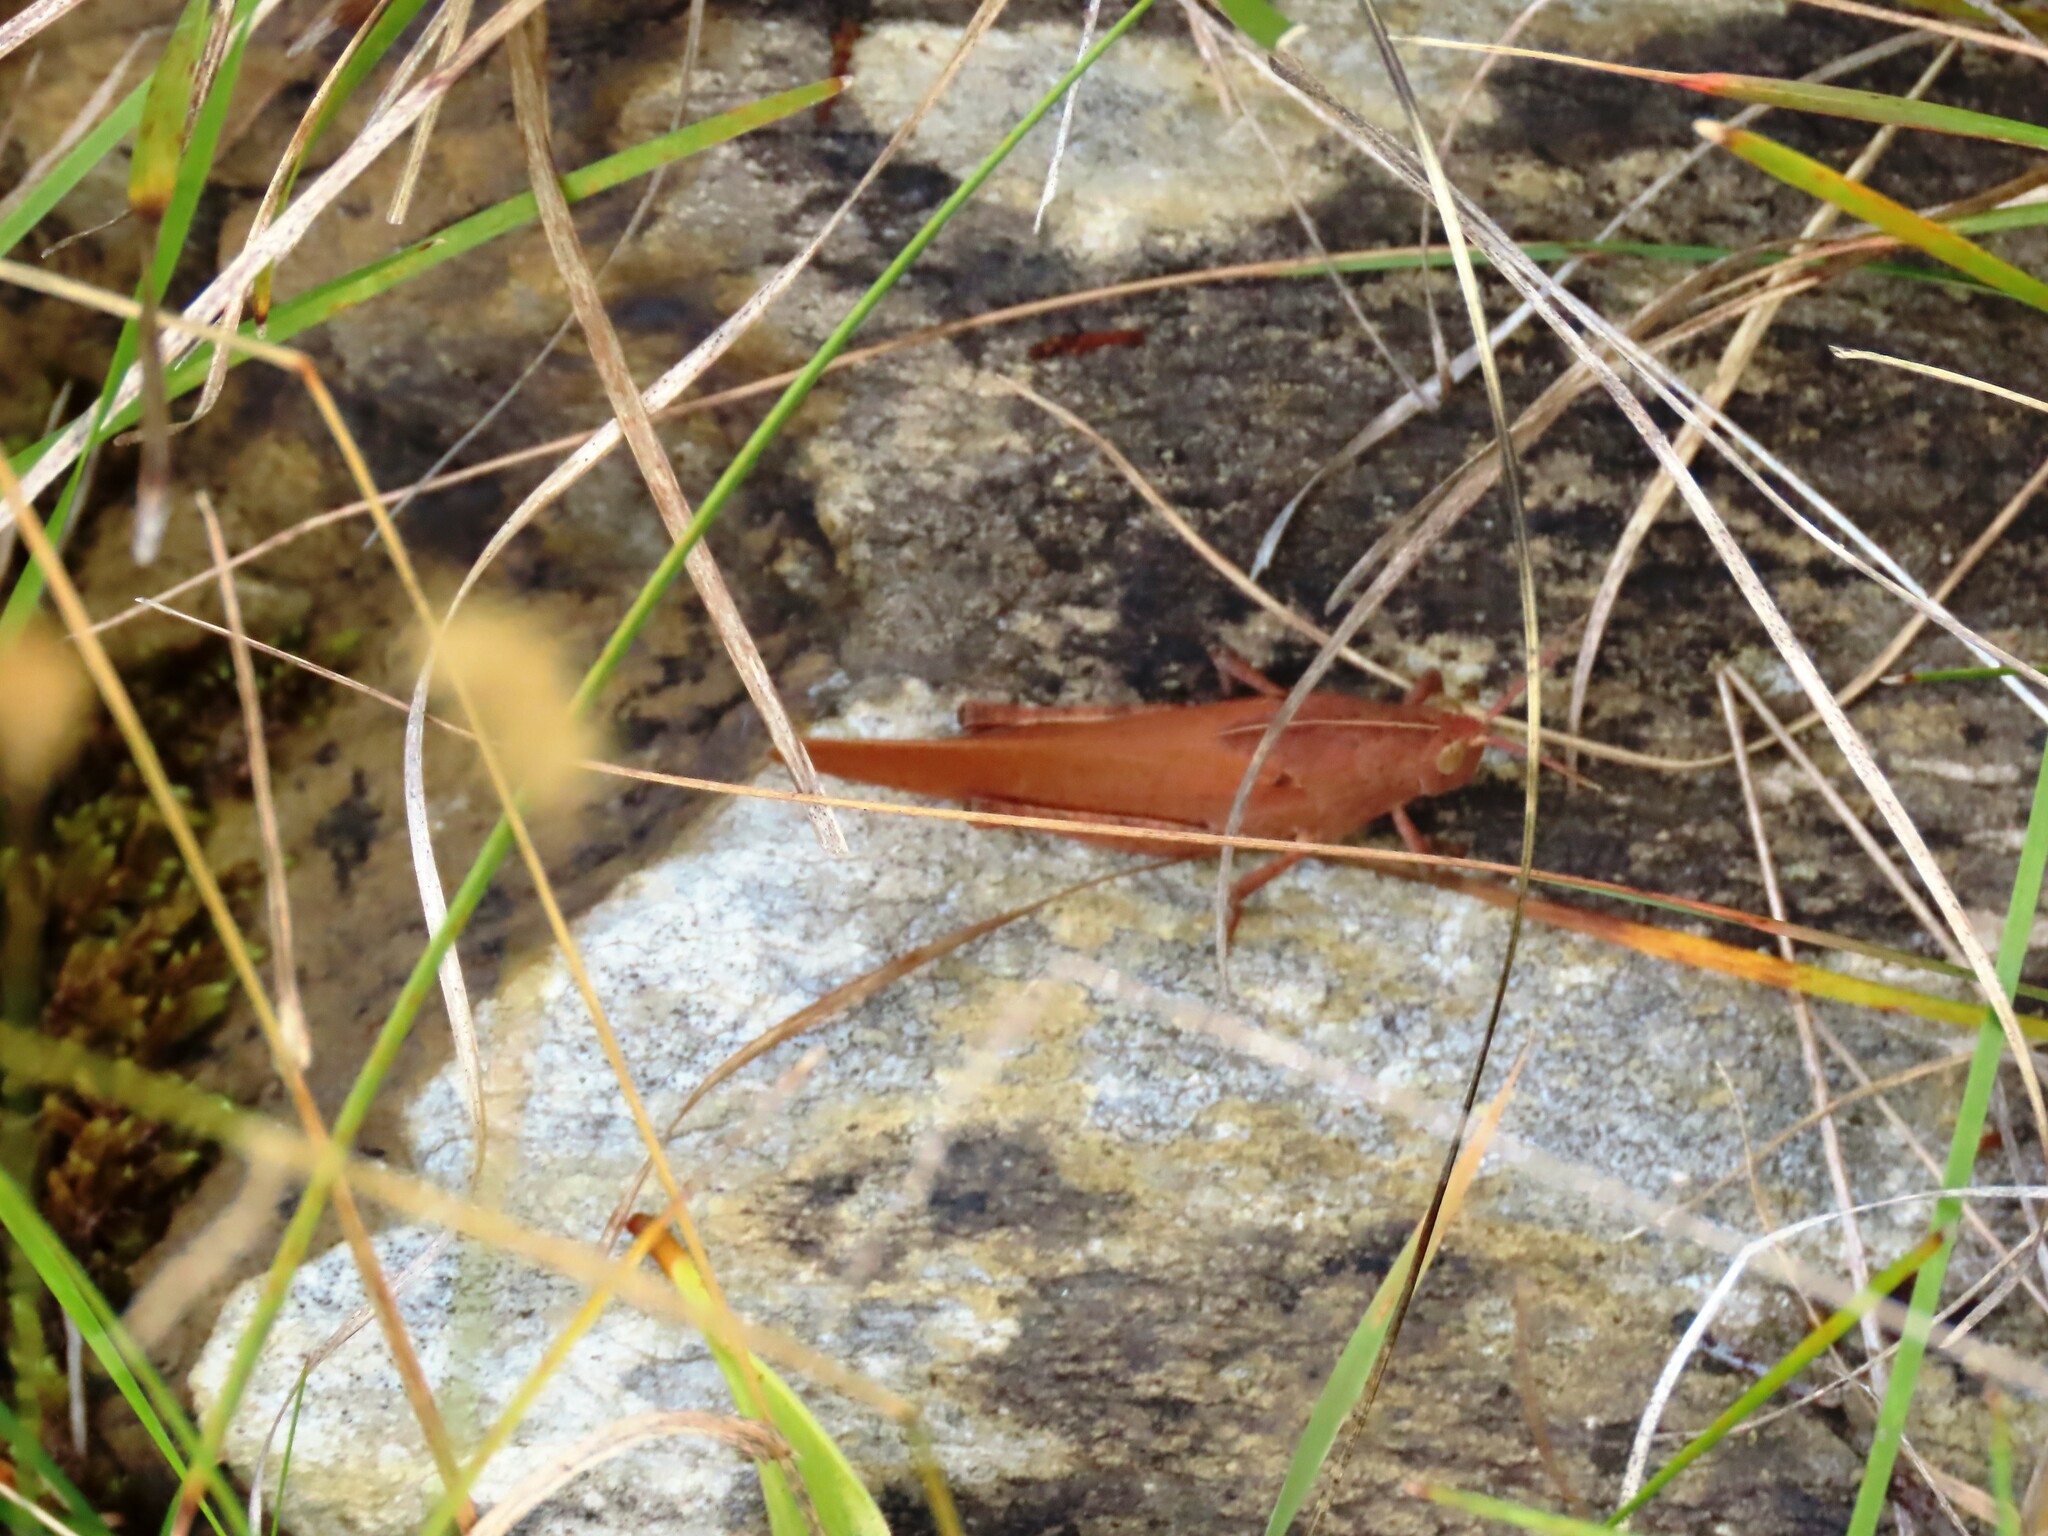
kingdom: Animalia
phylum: Arthropoda
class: Insecta
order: Orthoptera
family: Acrididae
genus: Goniaea
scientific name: Goniaea australasiae
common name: Gumleaf grasshopper
